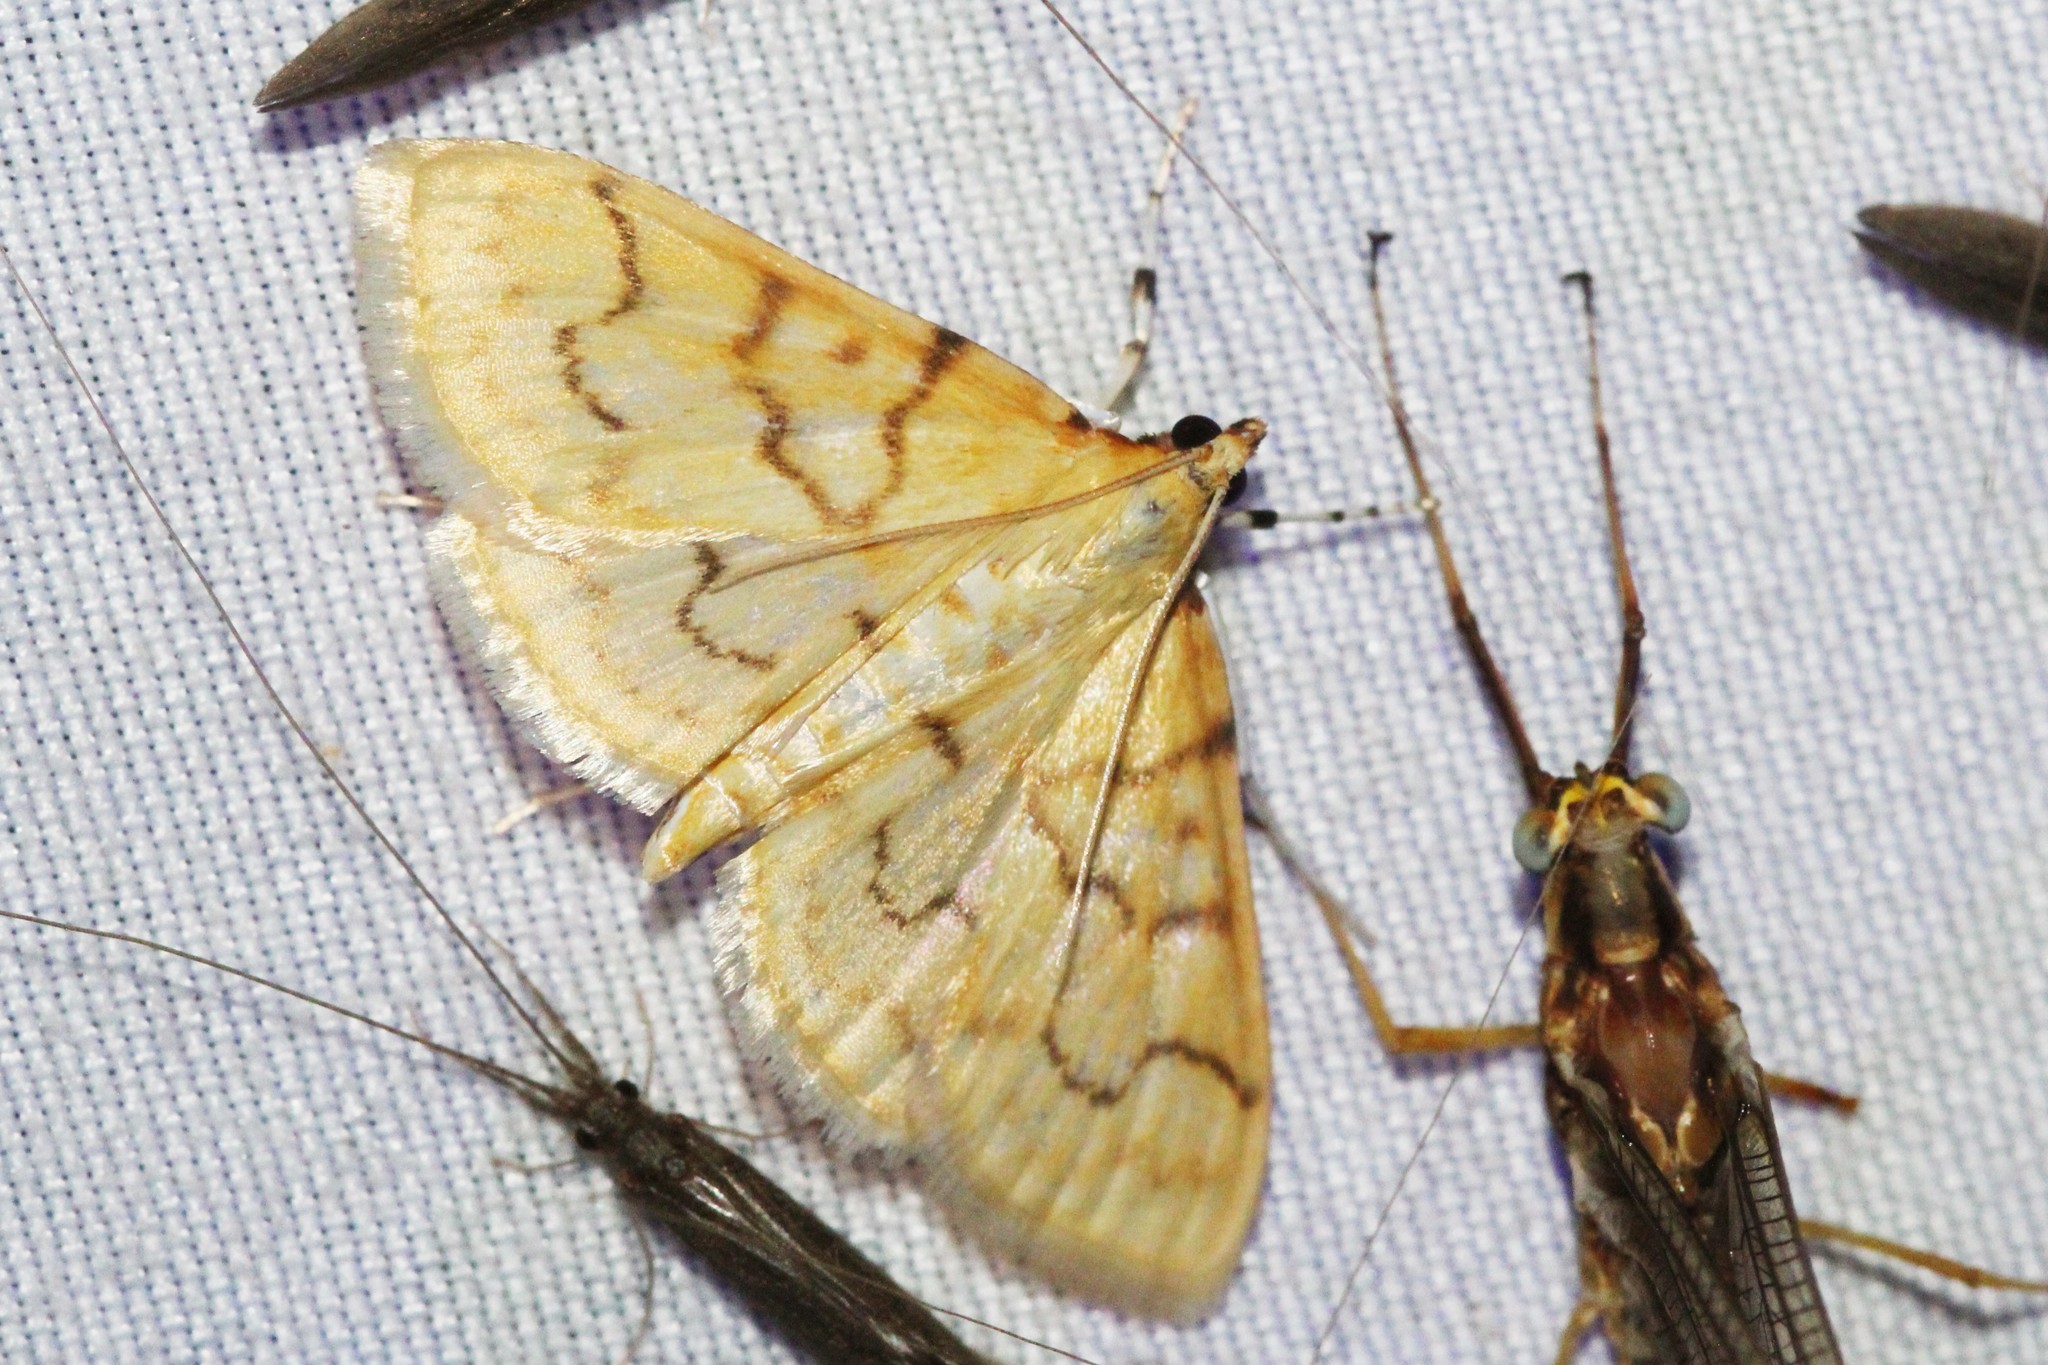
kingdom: Animalia
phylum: Arthropoda
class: Insecta
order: Lepidoptera
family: Crambidae
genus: Polygrammodes
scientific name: Polygrammodes flavidalis
